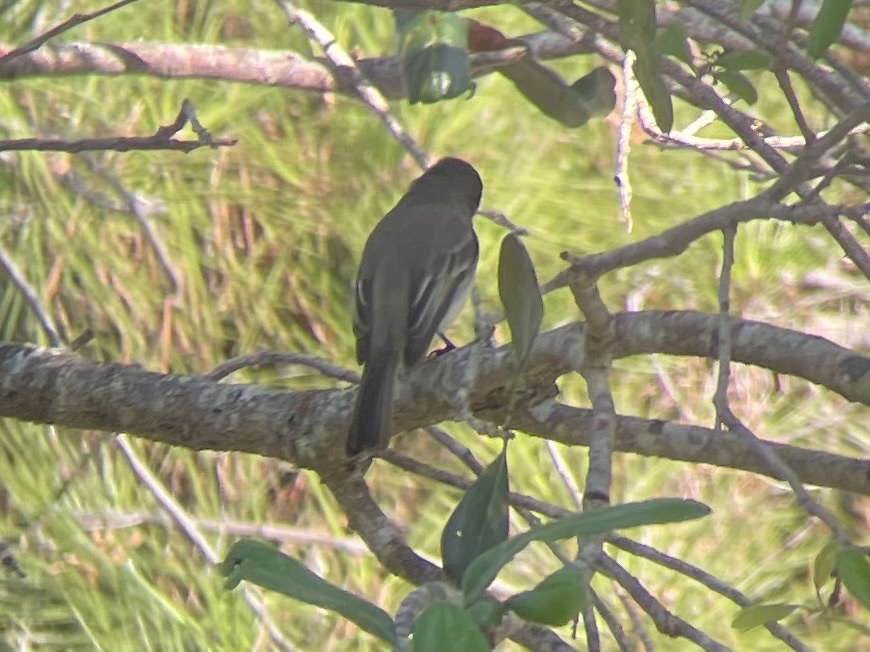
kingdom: Animalia
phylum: Chordata
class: Aves
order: Passeriformes
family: Tyrannidae
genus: Sayornis
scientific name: Sayornis phoebe
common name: Eastern phoebe
